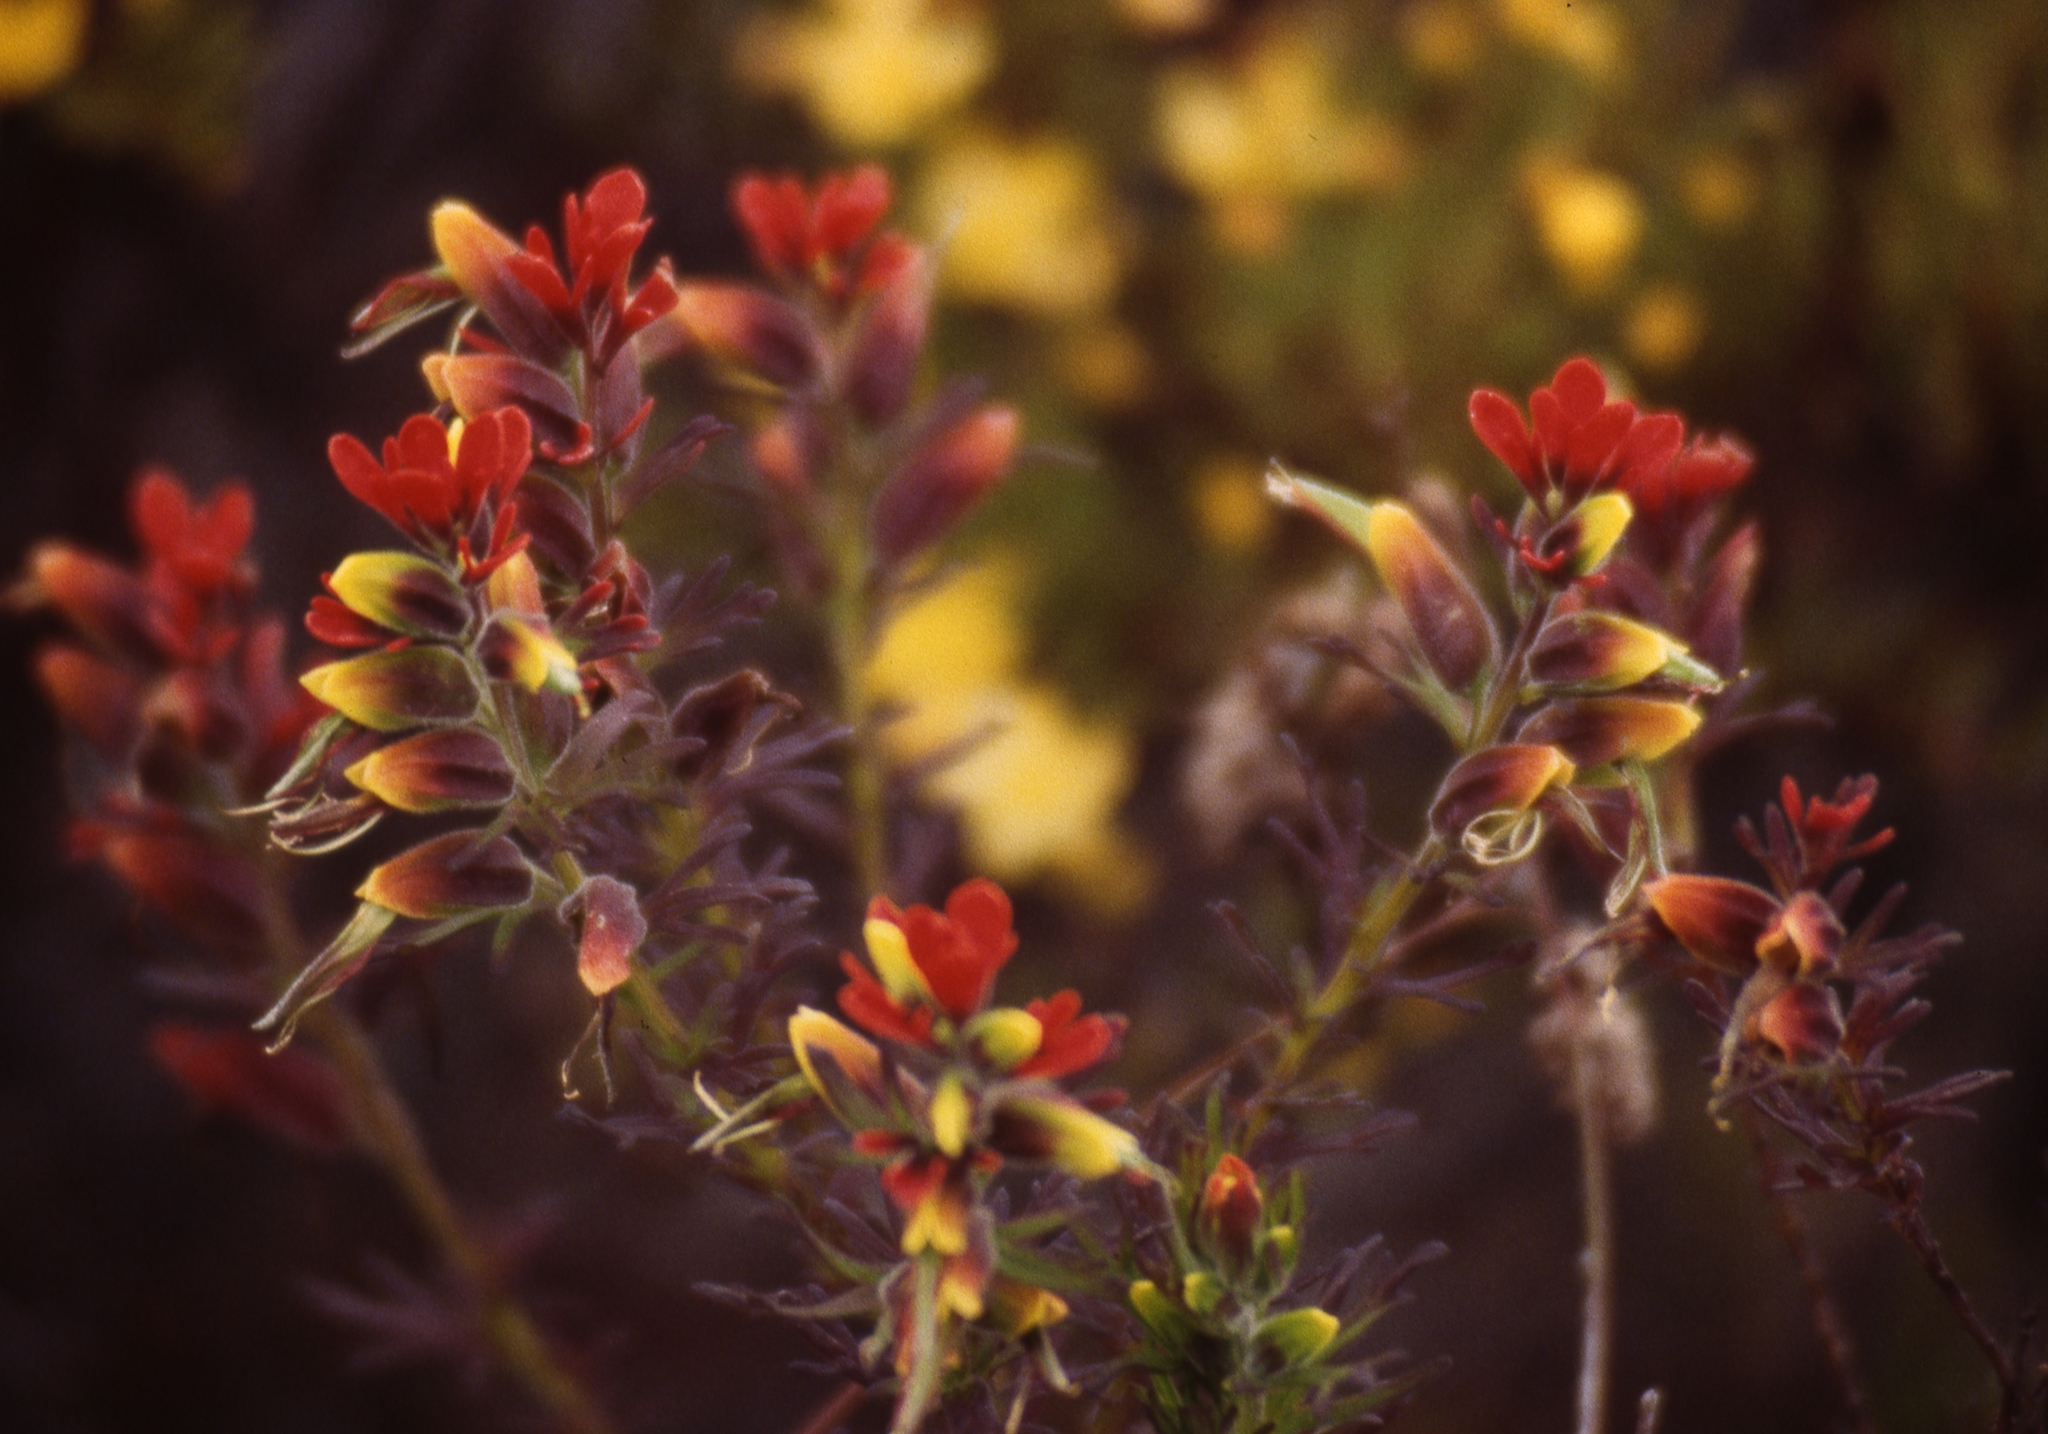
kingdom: Plantae
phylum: Tracheophyta
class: Magnoliopsida
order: Lamiales
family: Orobanchaceae
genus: Castilleja
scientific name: Castilleja meridensis
